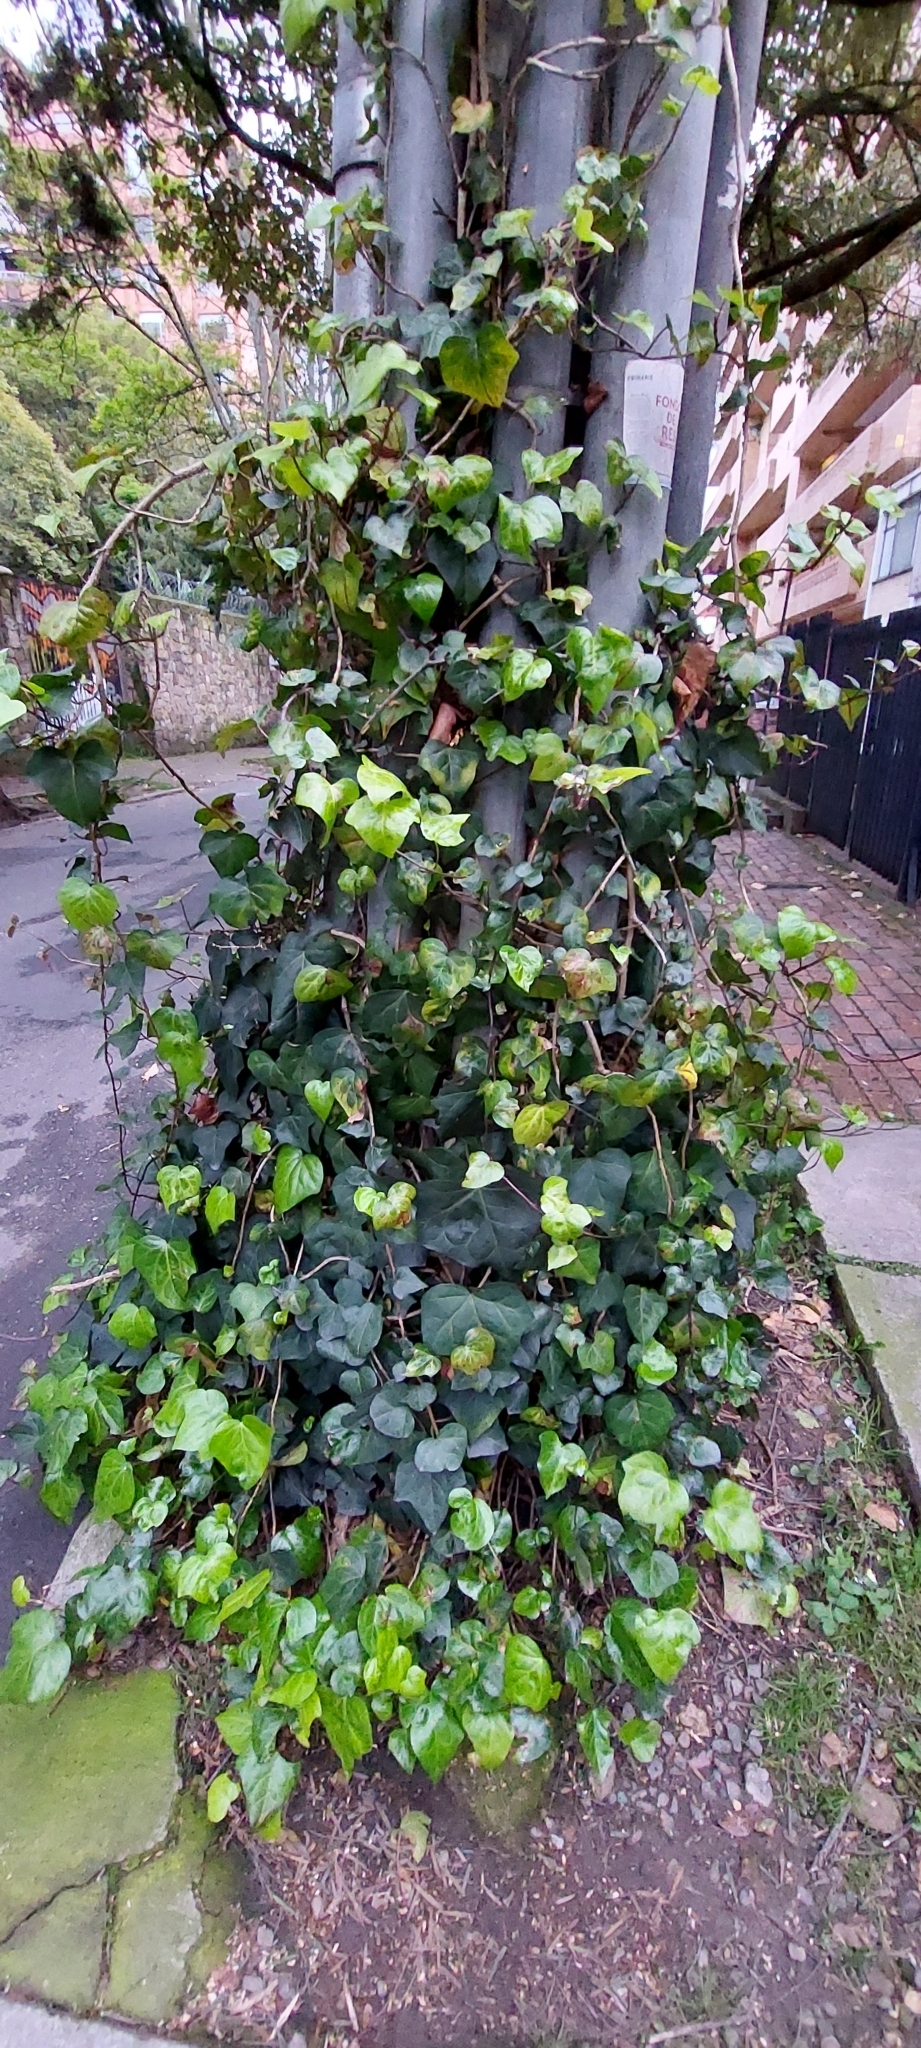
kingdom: Plantae
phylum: Tracheophyta
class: Magnoliopsida
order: Apiales
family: Araliaceae
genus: Hedera
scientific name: Hedera helix
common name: Ivy
